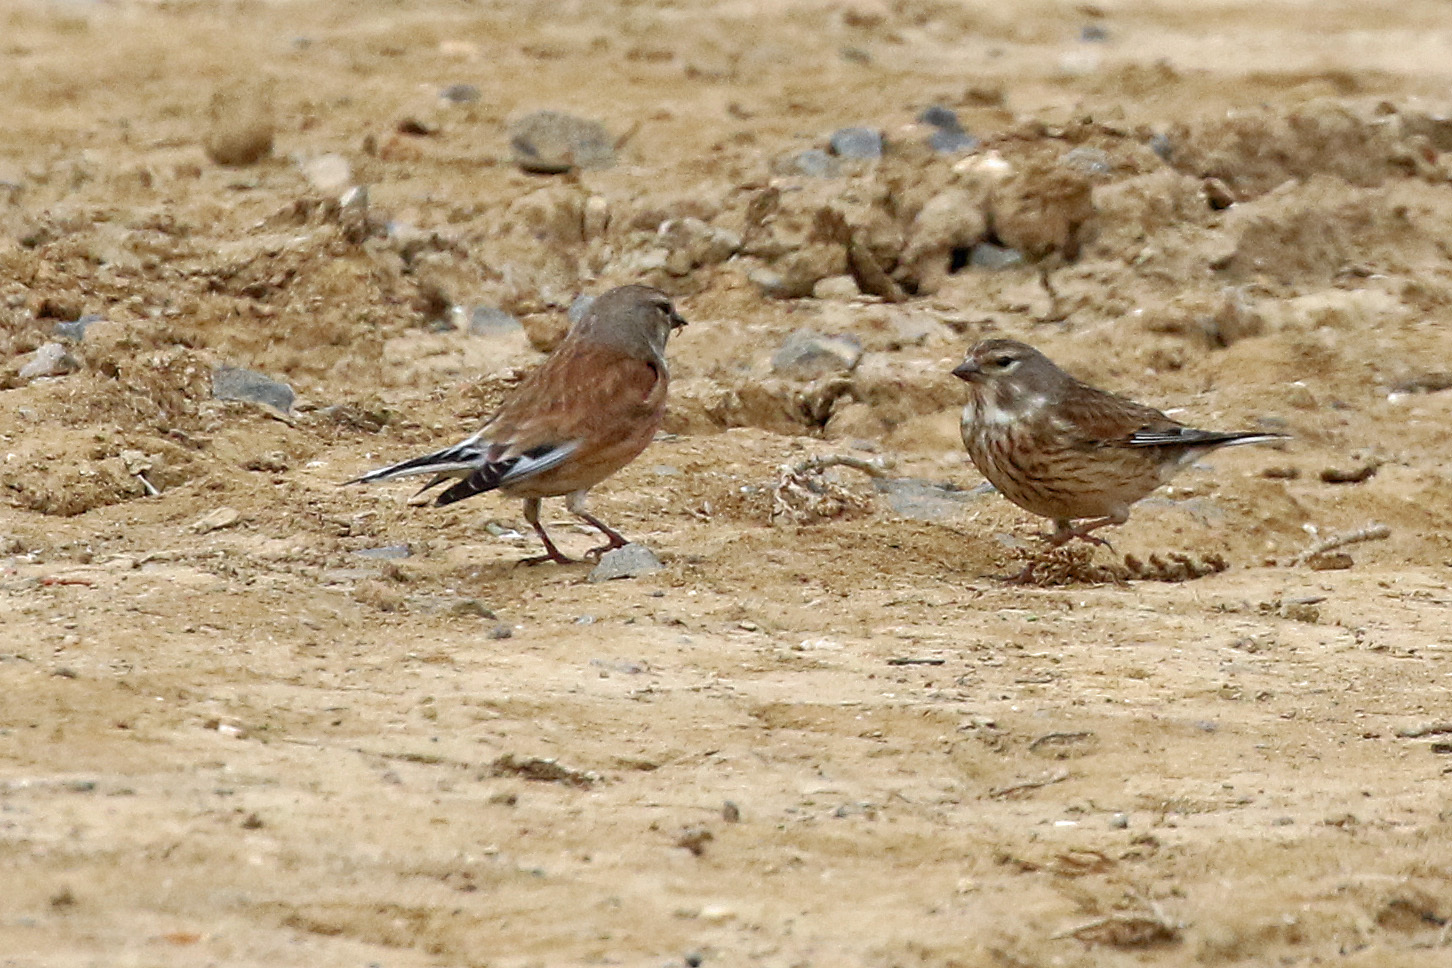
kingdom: Animalia
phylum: Chordata
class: Aves
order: Passeriformes
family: Fringillidae
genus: Linaria
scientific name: Linaria cannabina
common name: Common linnet
